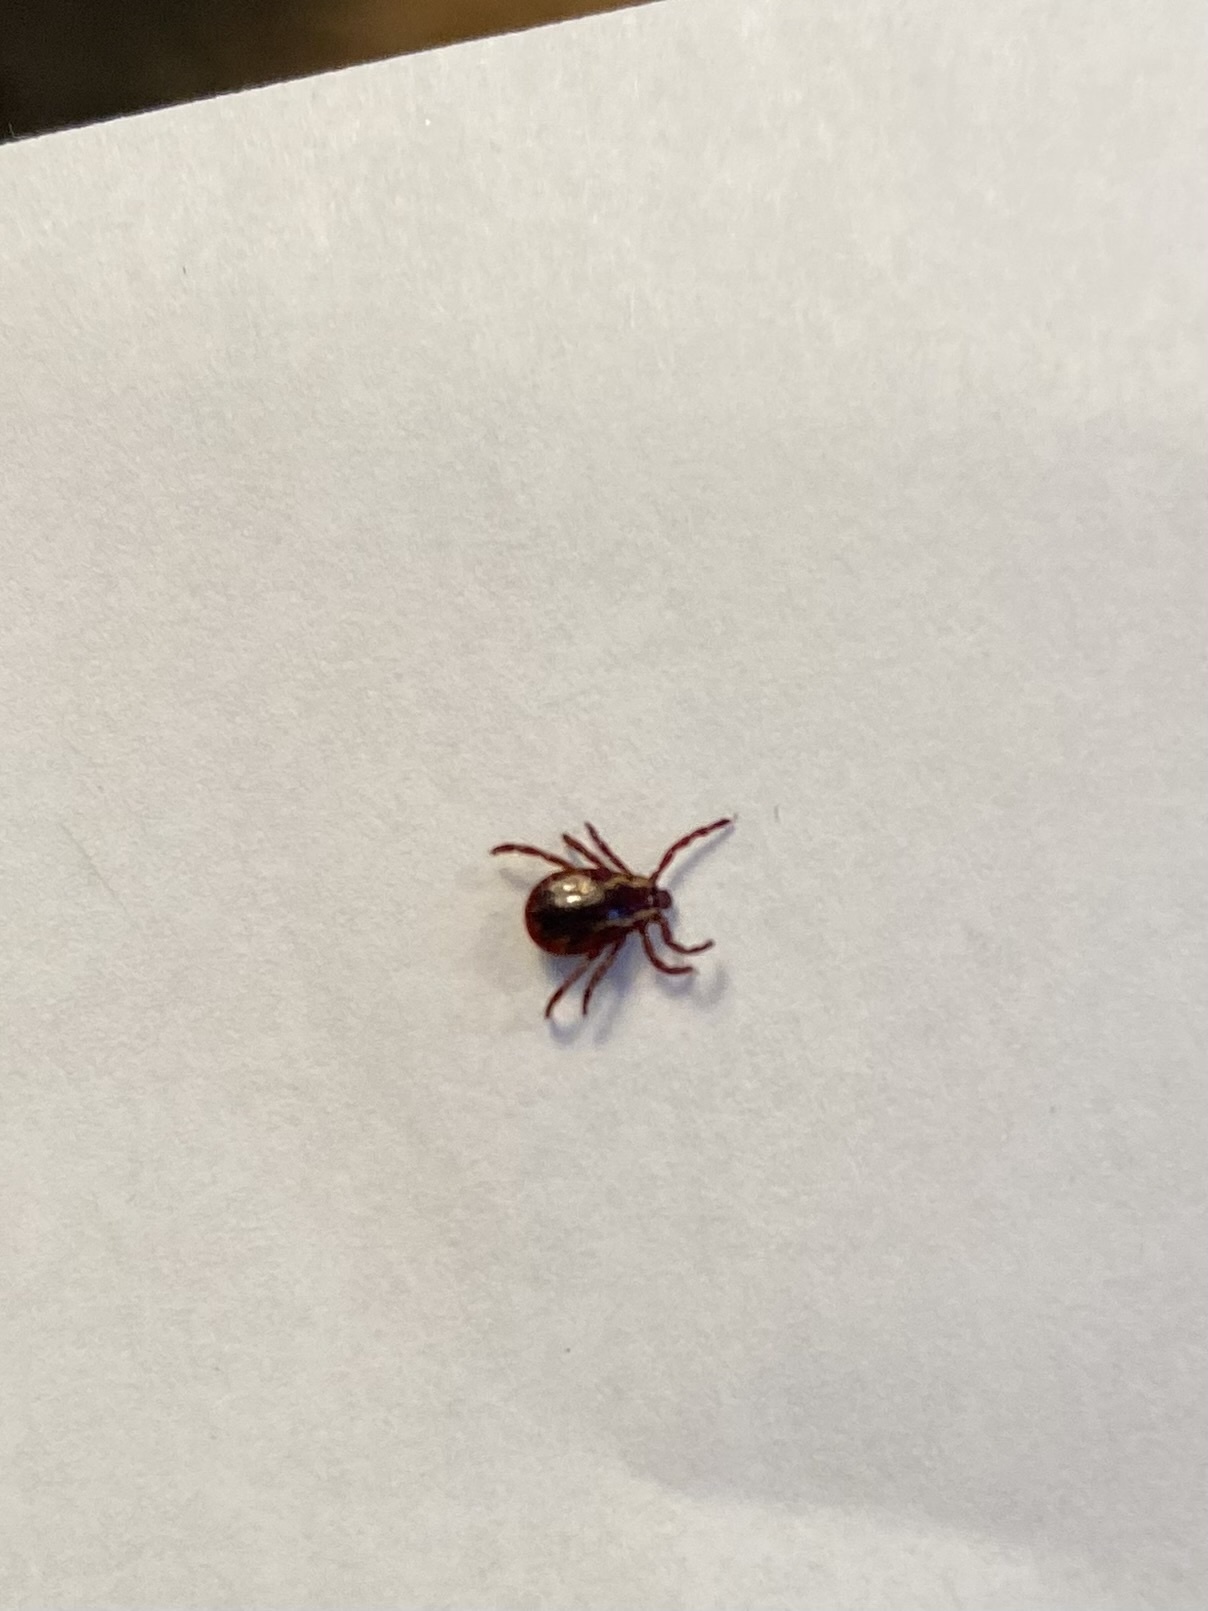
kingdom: Animalia
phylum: Arthropoda
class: Arachnida
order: Ixodida
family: Ixodidae
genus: Dermacentor
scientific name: Dermacentor variabilis
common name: American dog tick
